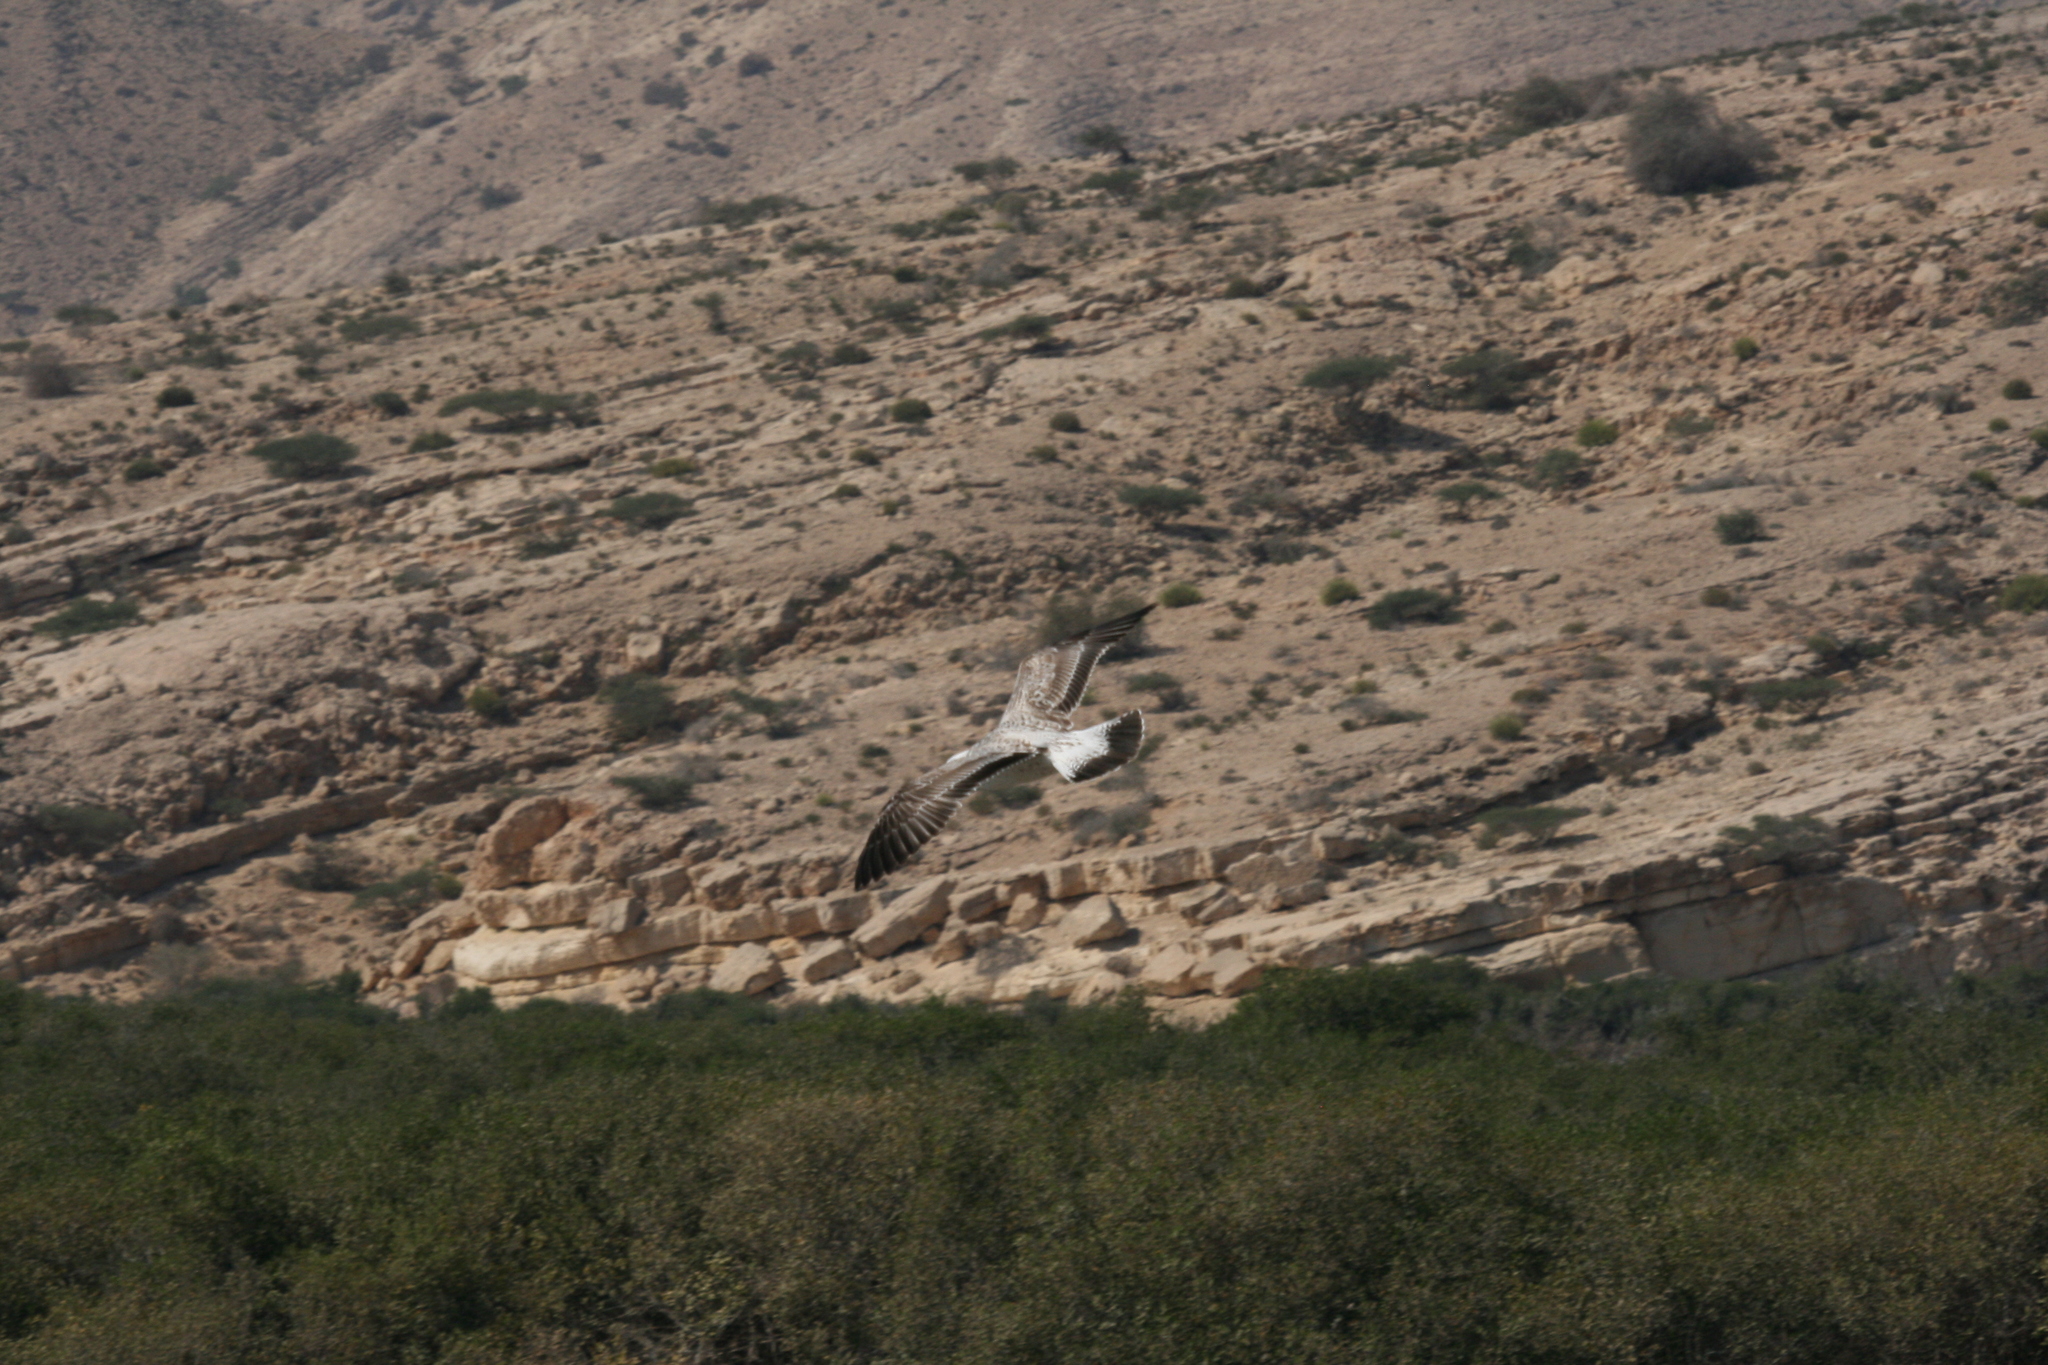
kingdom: Animalia
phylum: Chordata
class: Aves
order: Charadriiformes
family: Laridae
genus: Larus
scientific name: Larus cachinnans
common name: Caspian gull
